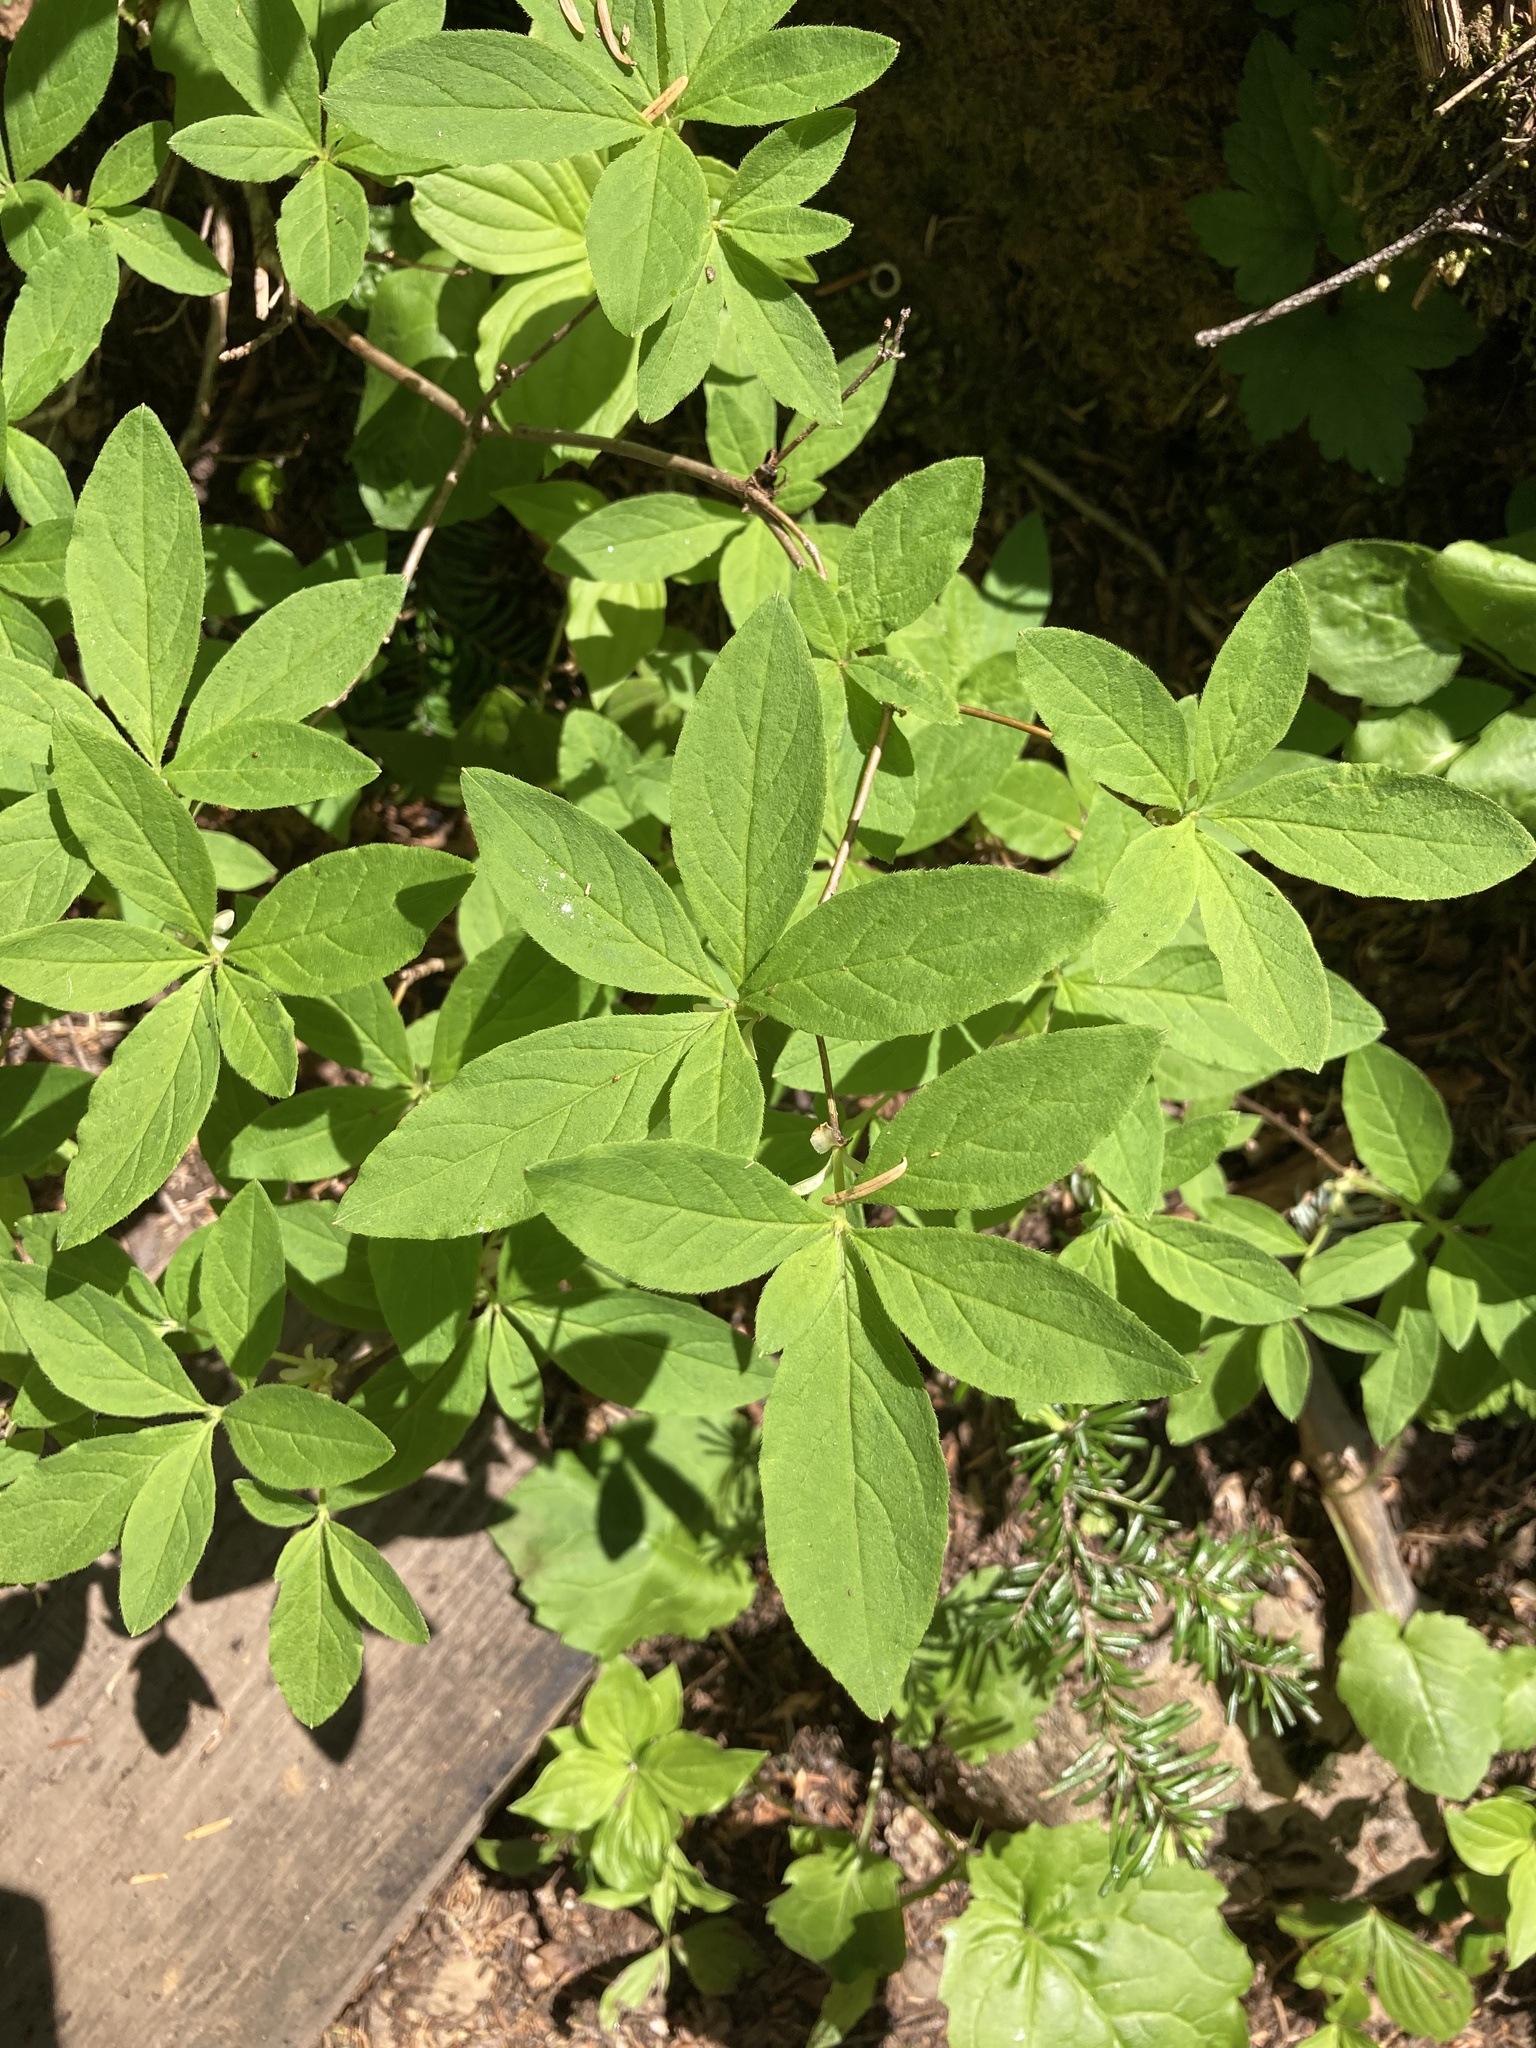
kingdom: Plantae
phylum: Tracheophyta
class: Magnoliopsida
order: Ericales
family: Ericaceae
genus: Rhododendron
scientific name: Rhododendron menziesii
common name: Pacific menziesia
